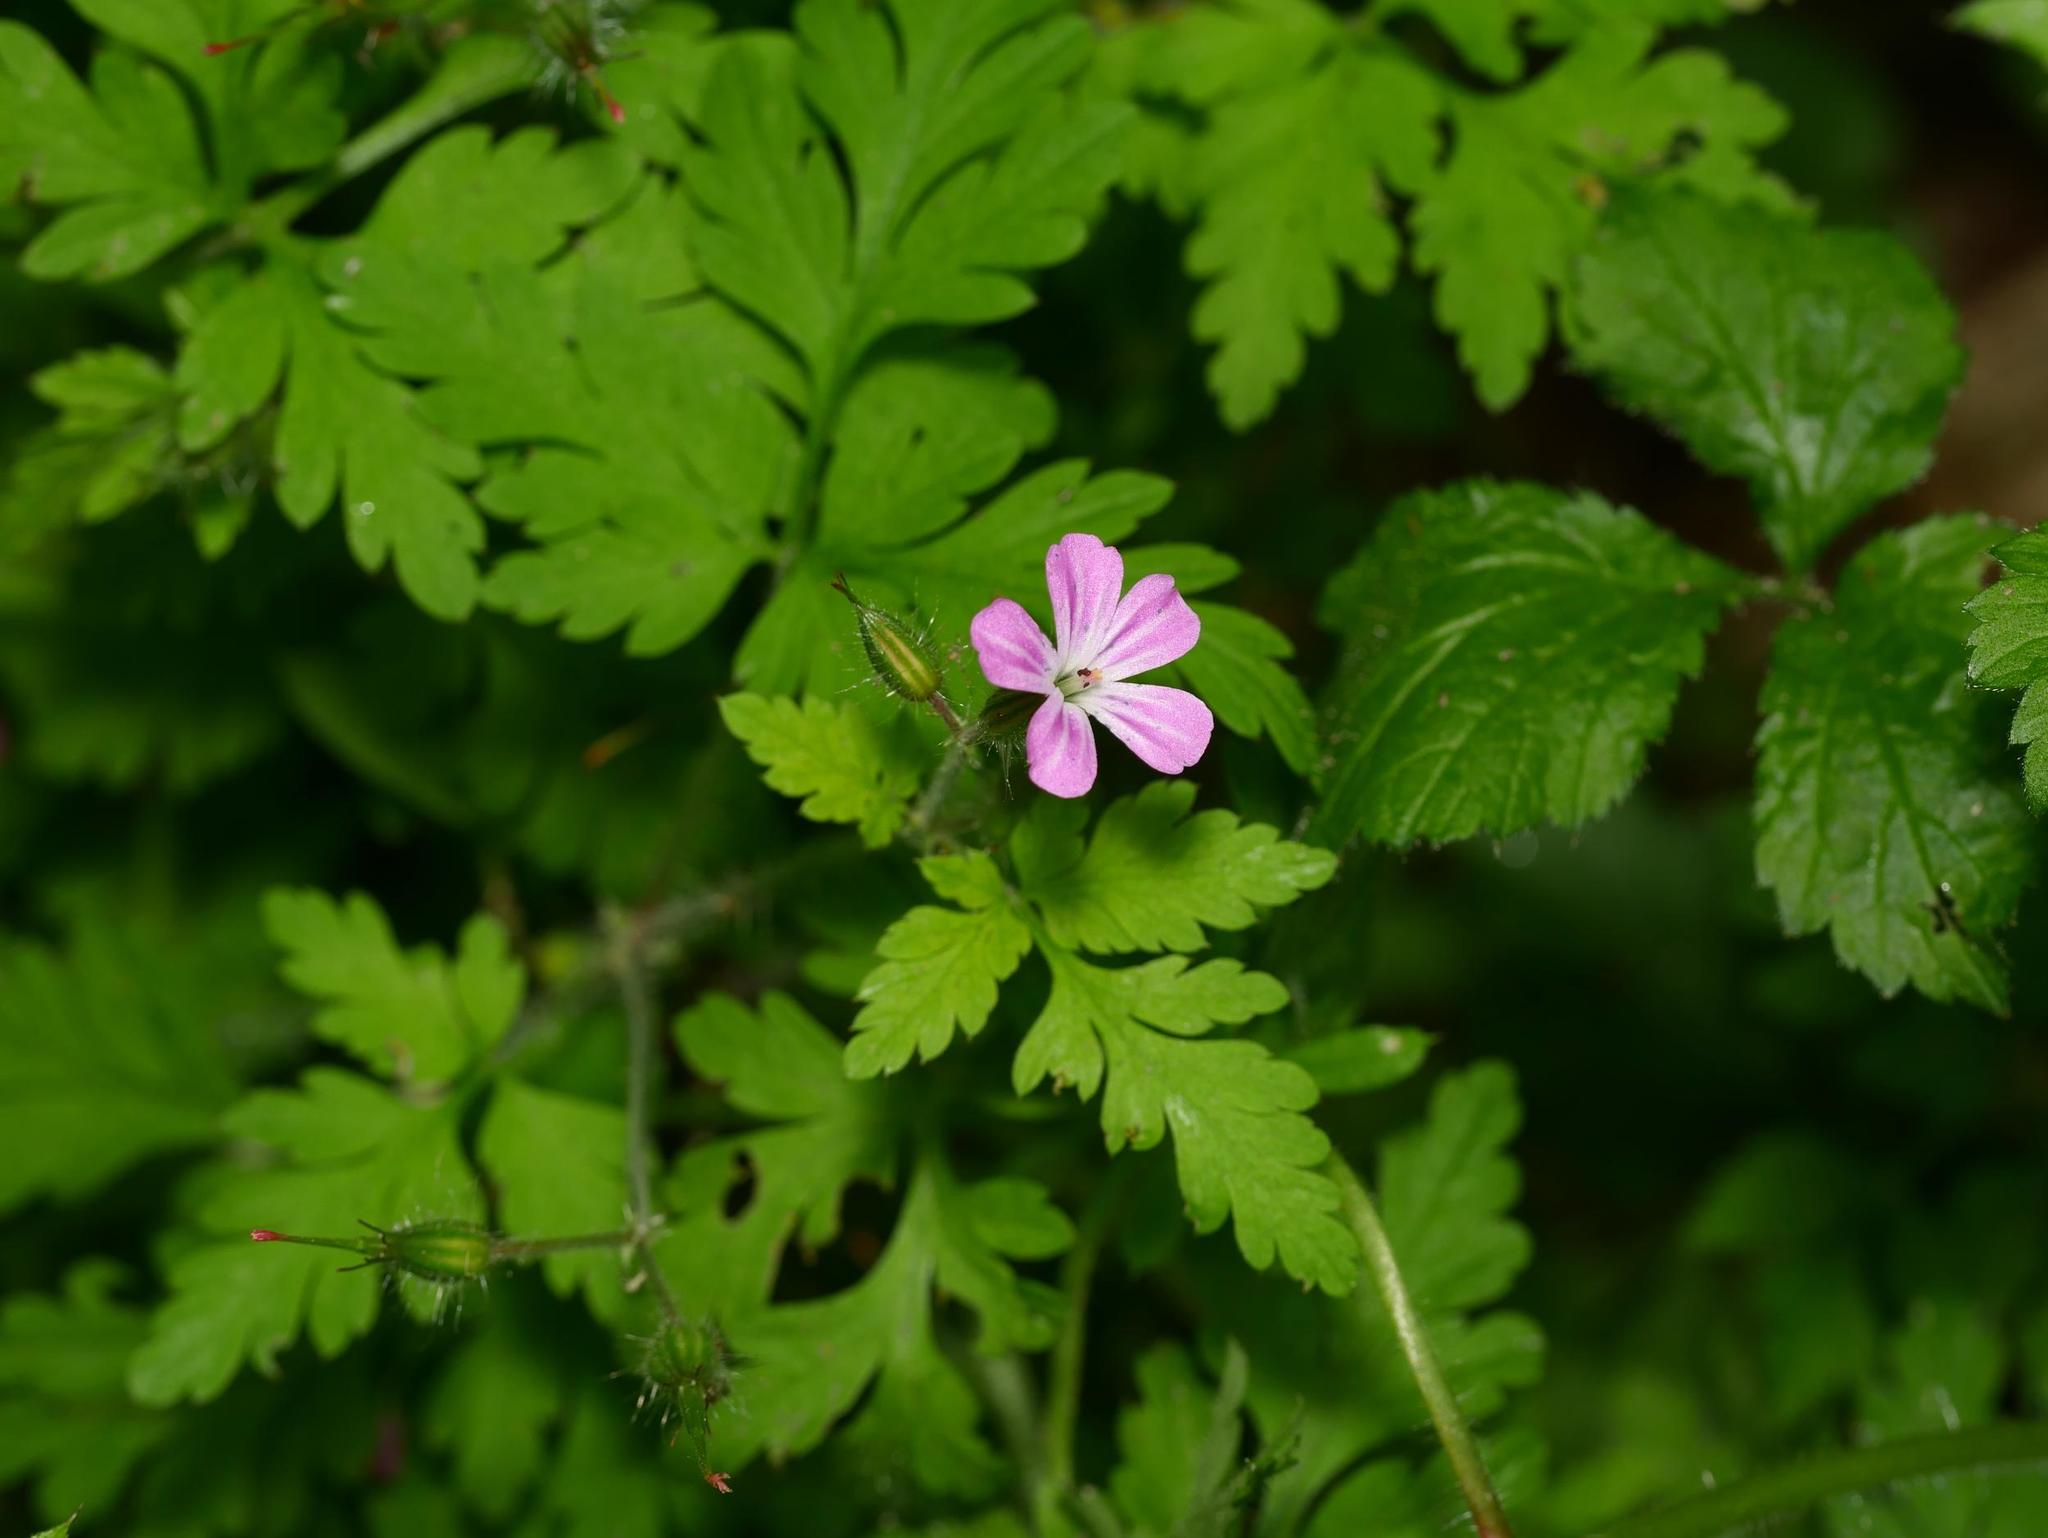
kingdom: Plantae
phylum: Tracheophyta
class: Magnoliopsida
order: Geraniales
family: Geraniaceae
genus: Geranium
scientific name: Geranium robertianum
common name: Herb-robert
